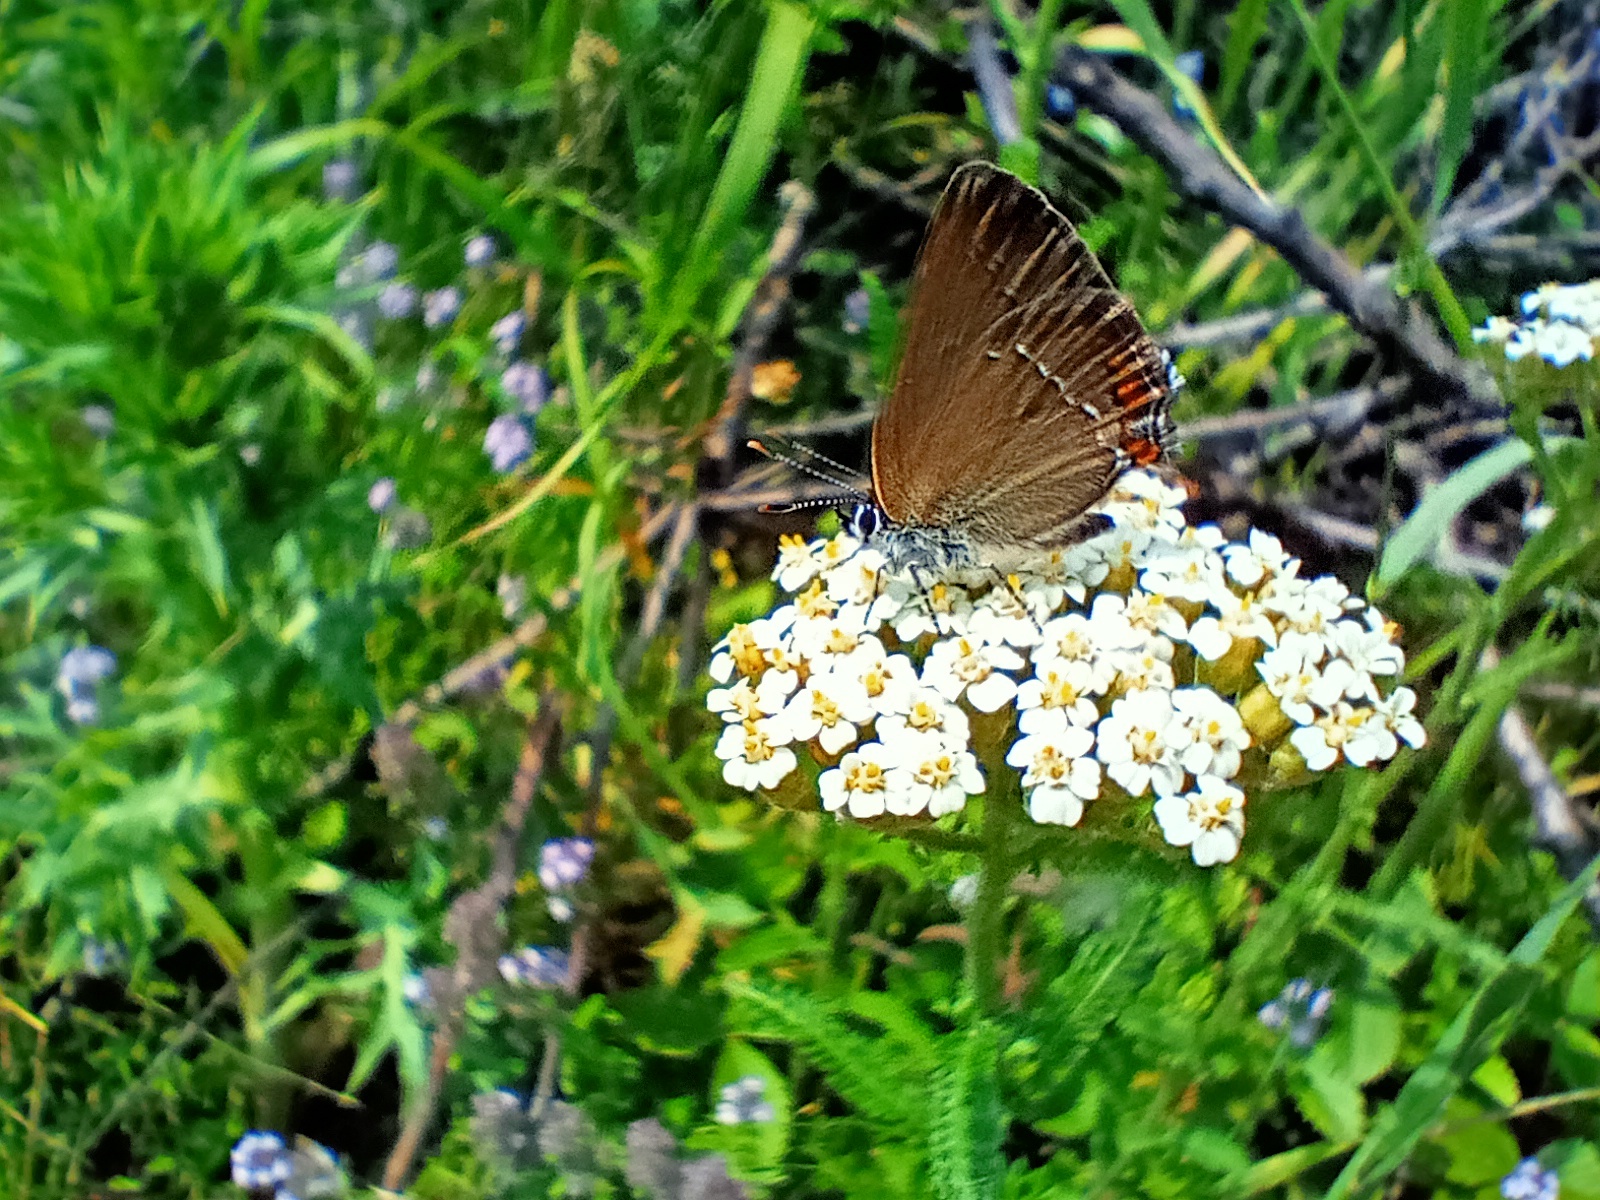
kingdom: Animalia
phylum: Arthropoda
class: Insecta
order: Lepidoptera
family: Lycaenidae
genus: Strymon
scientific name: Strymon acaciae
